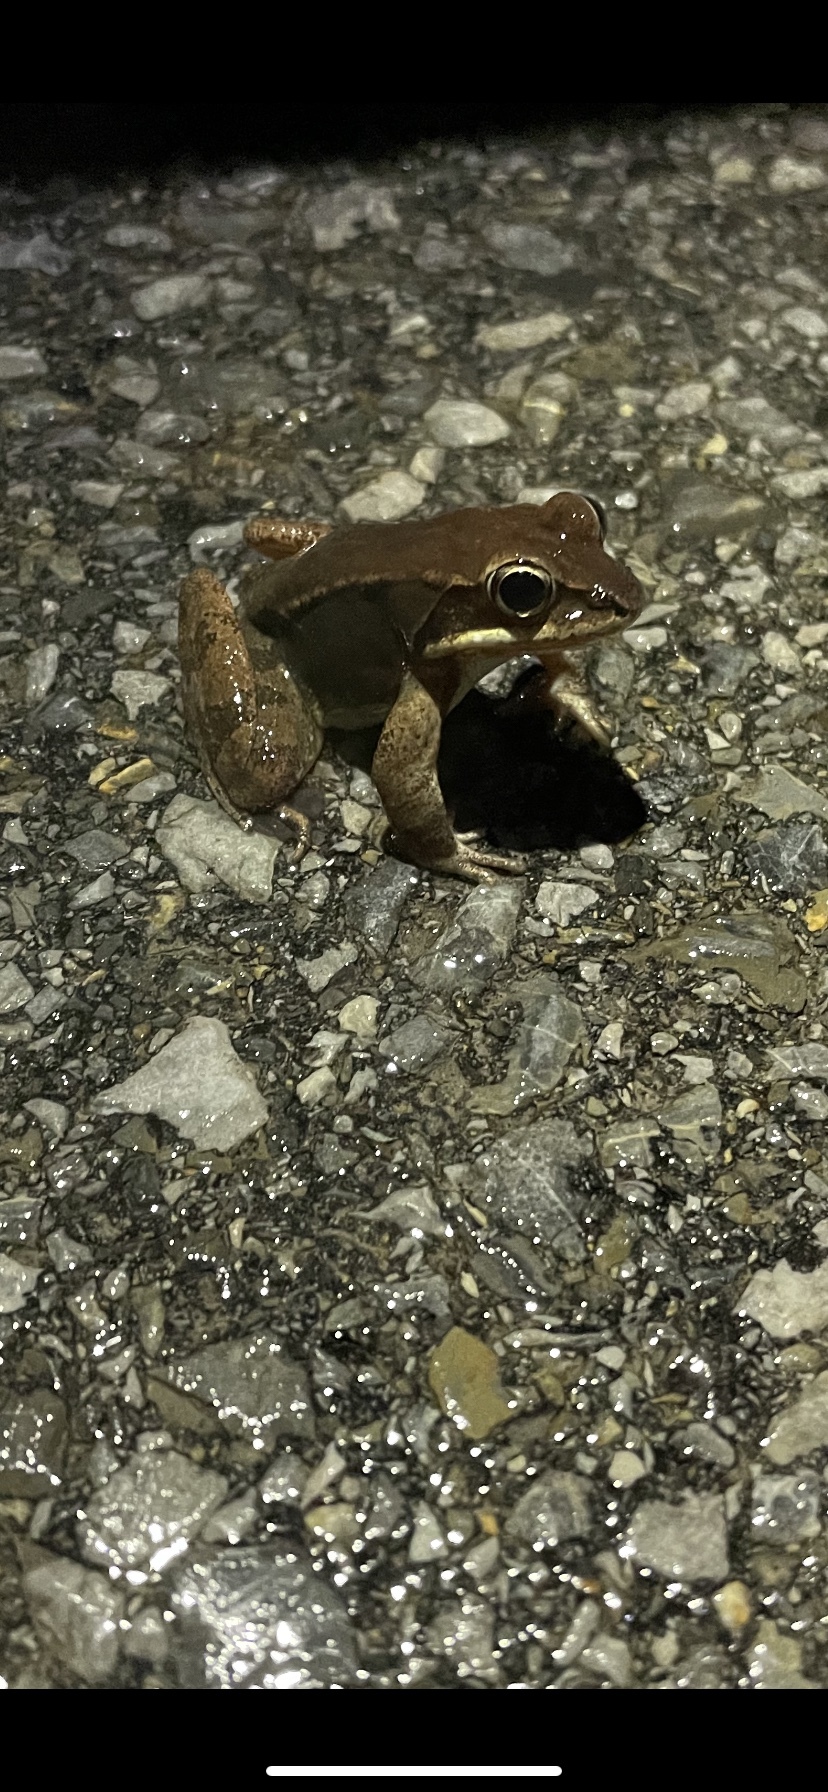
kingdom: Animalia
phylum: Chordata
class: Amphibia
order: Anura
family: Ranidae
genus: Lithobates
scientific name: Lithobates sylvaticus
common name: Wood frog
